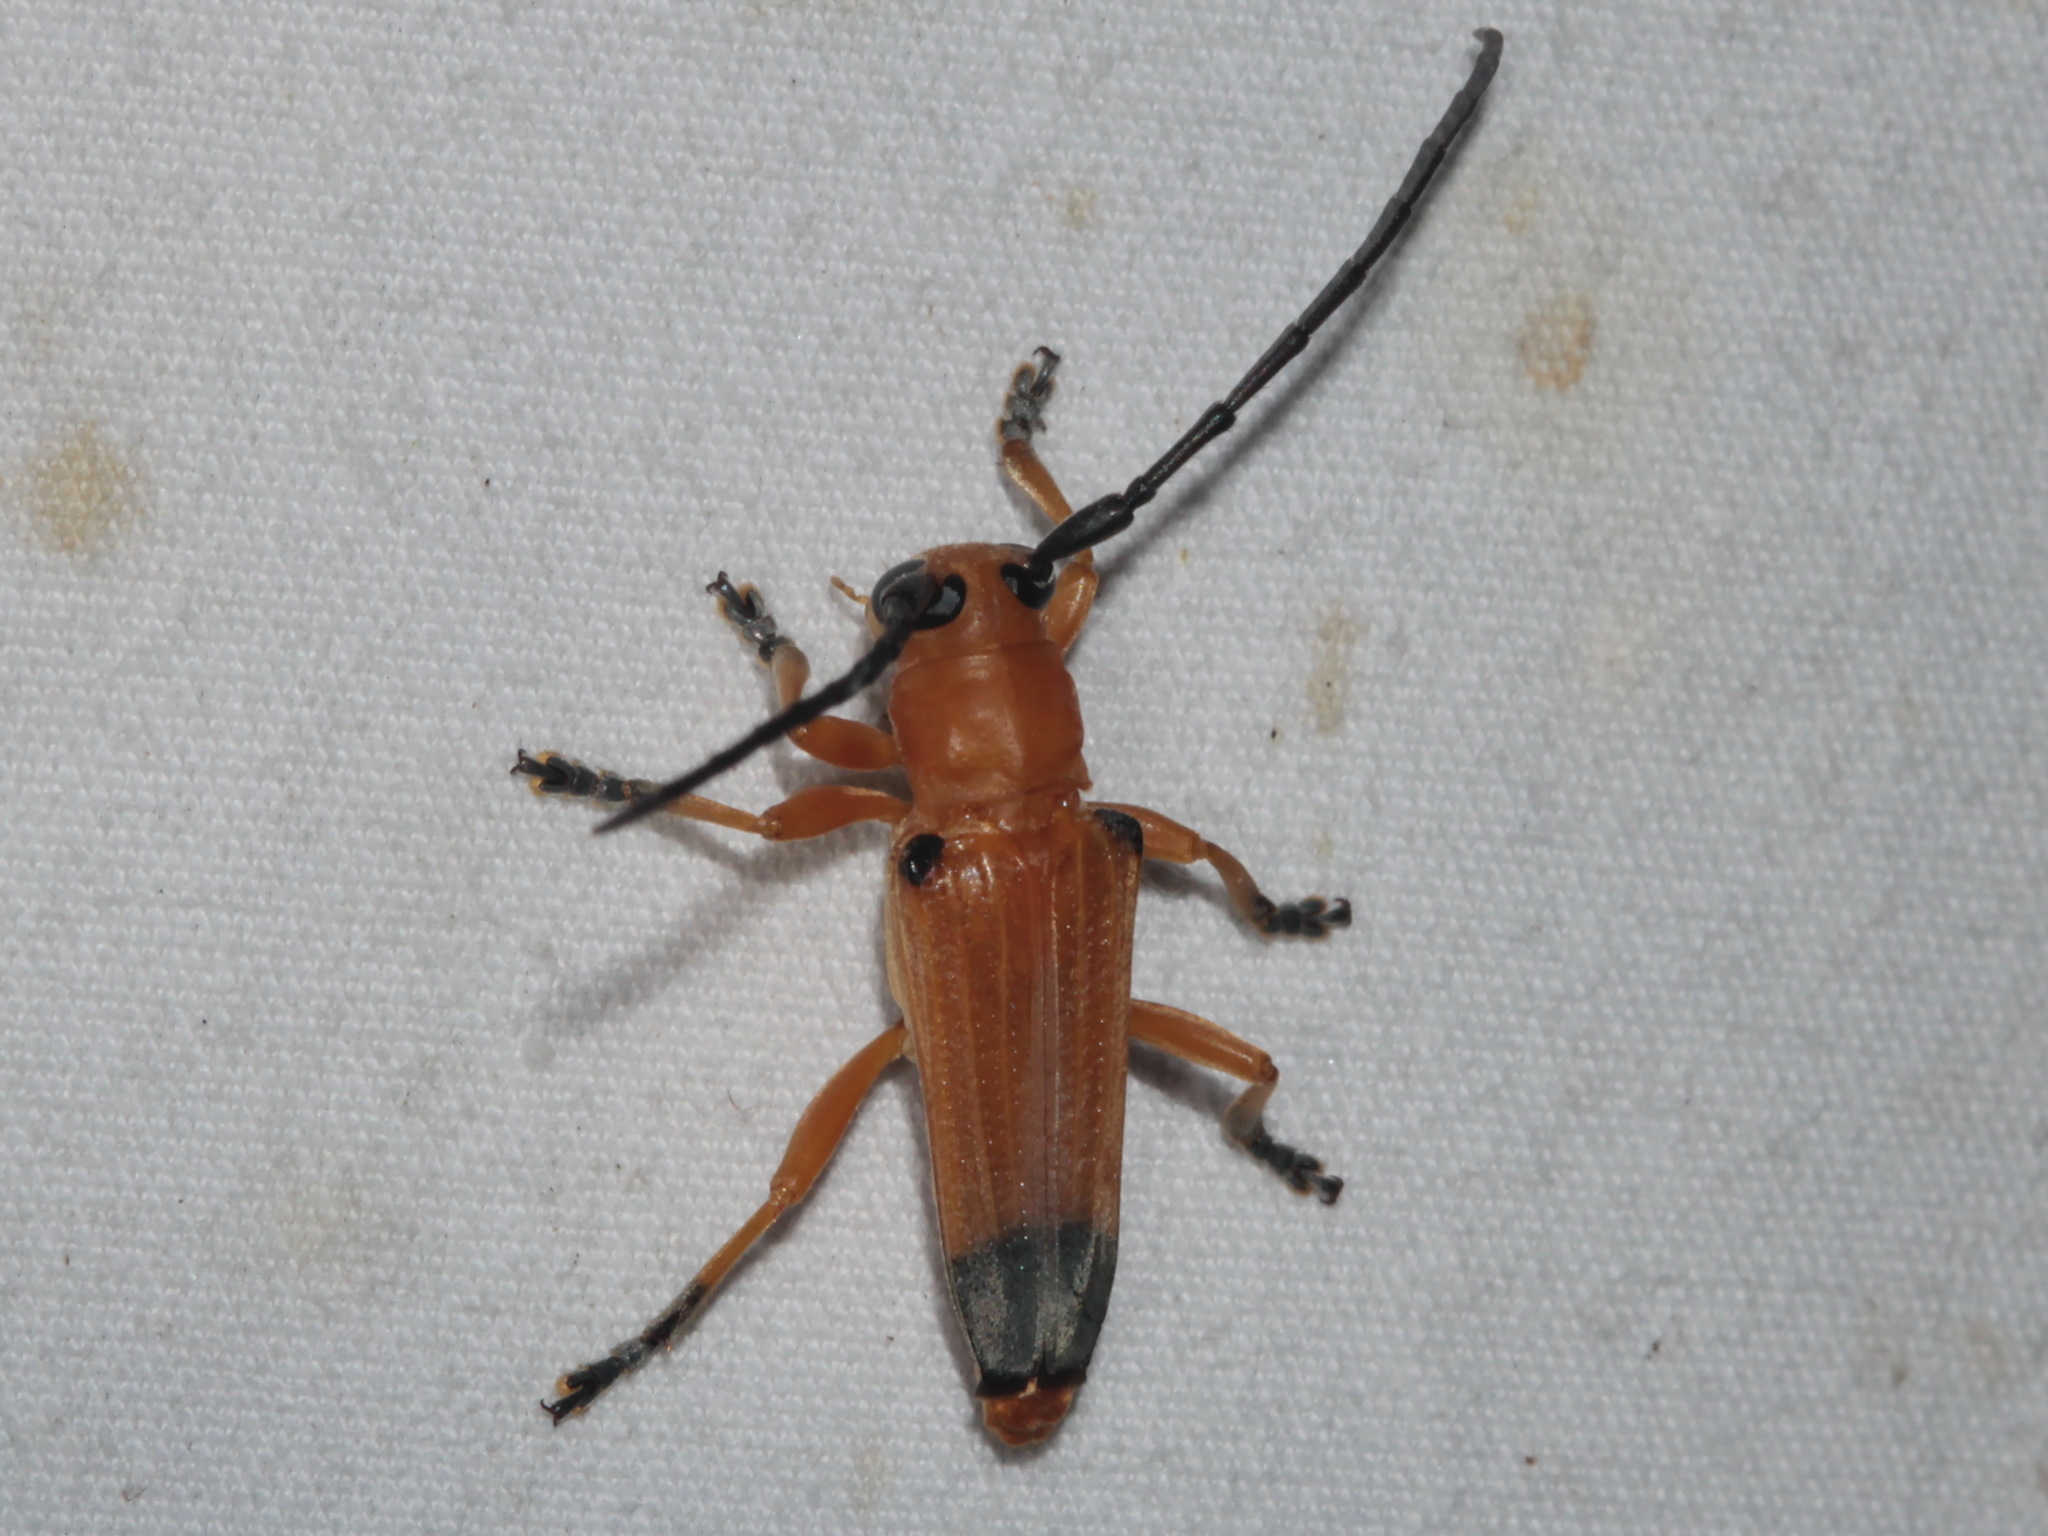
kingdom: Animalia
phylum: Arthropoda
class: Insecta
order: Coleoptera
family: Cerambycidae
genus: Stibara
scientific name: Stibara humeralis
